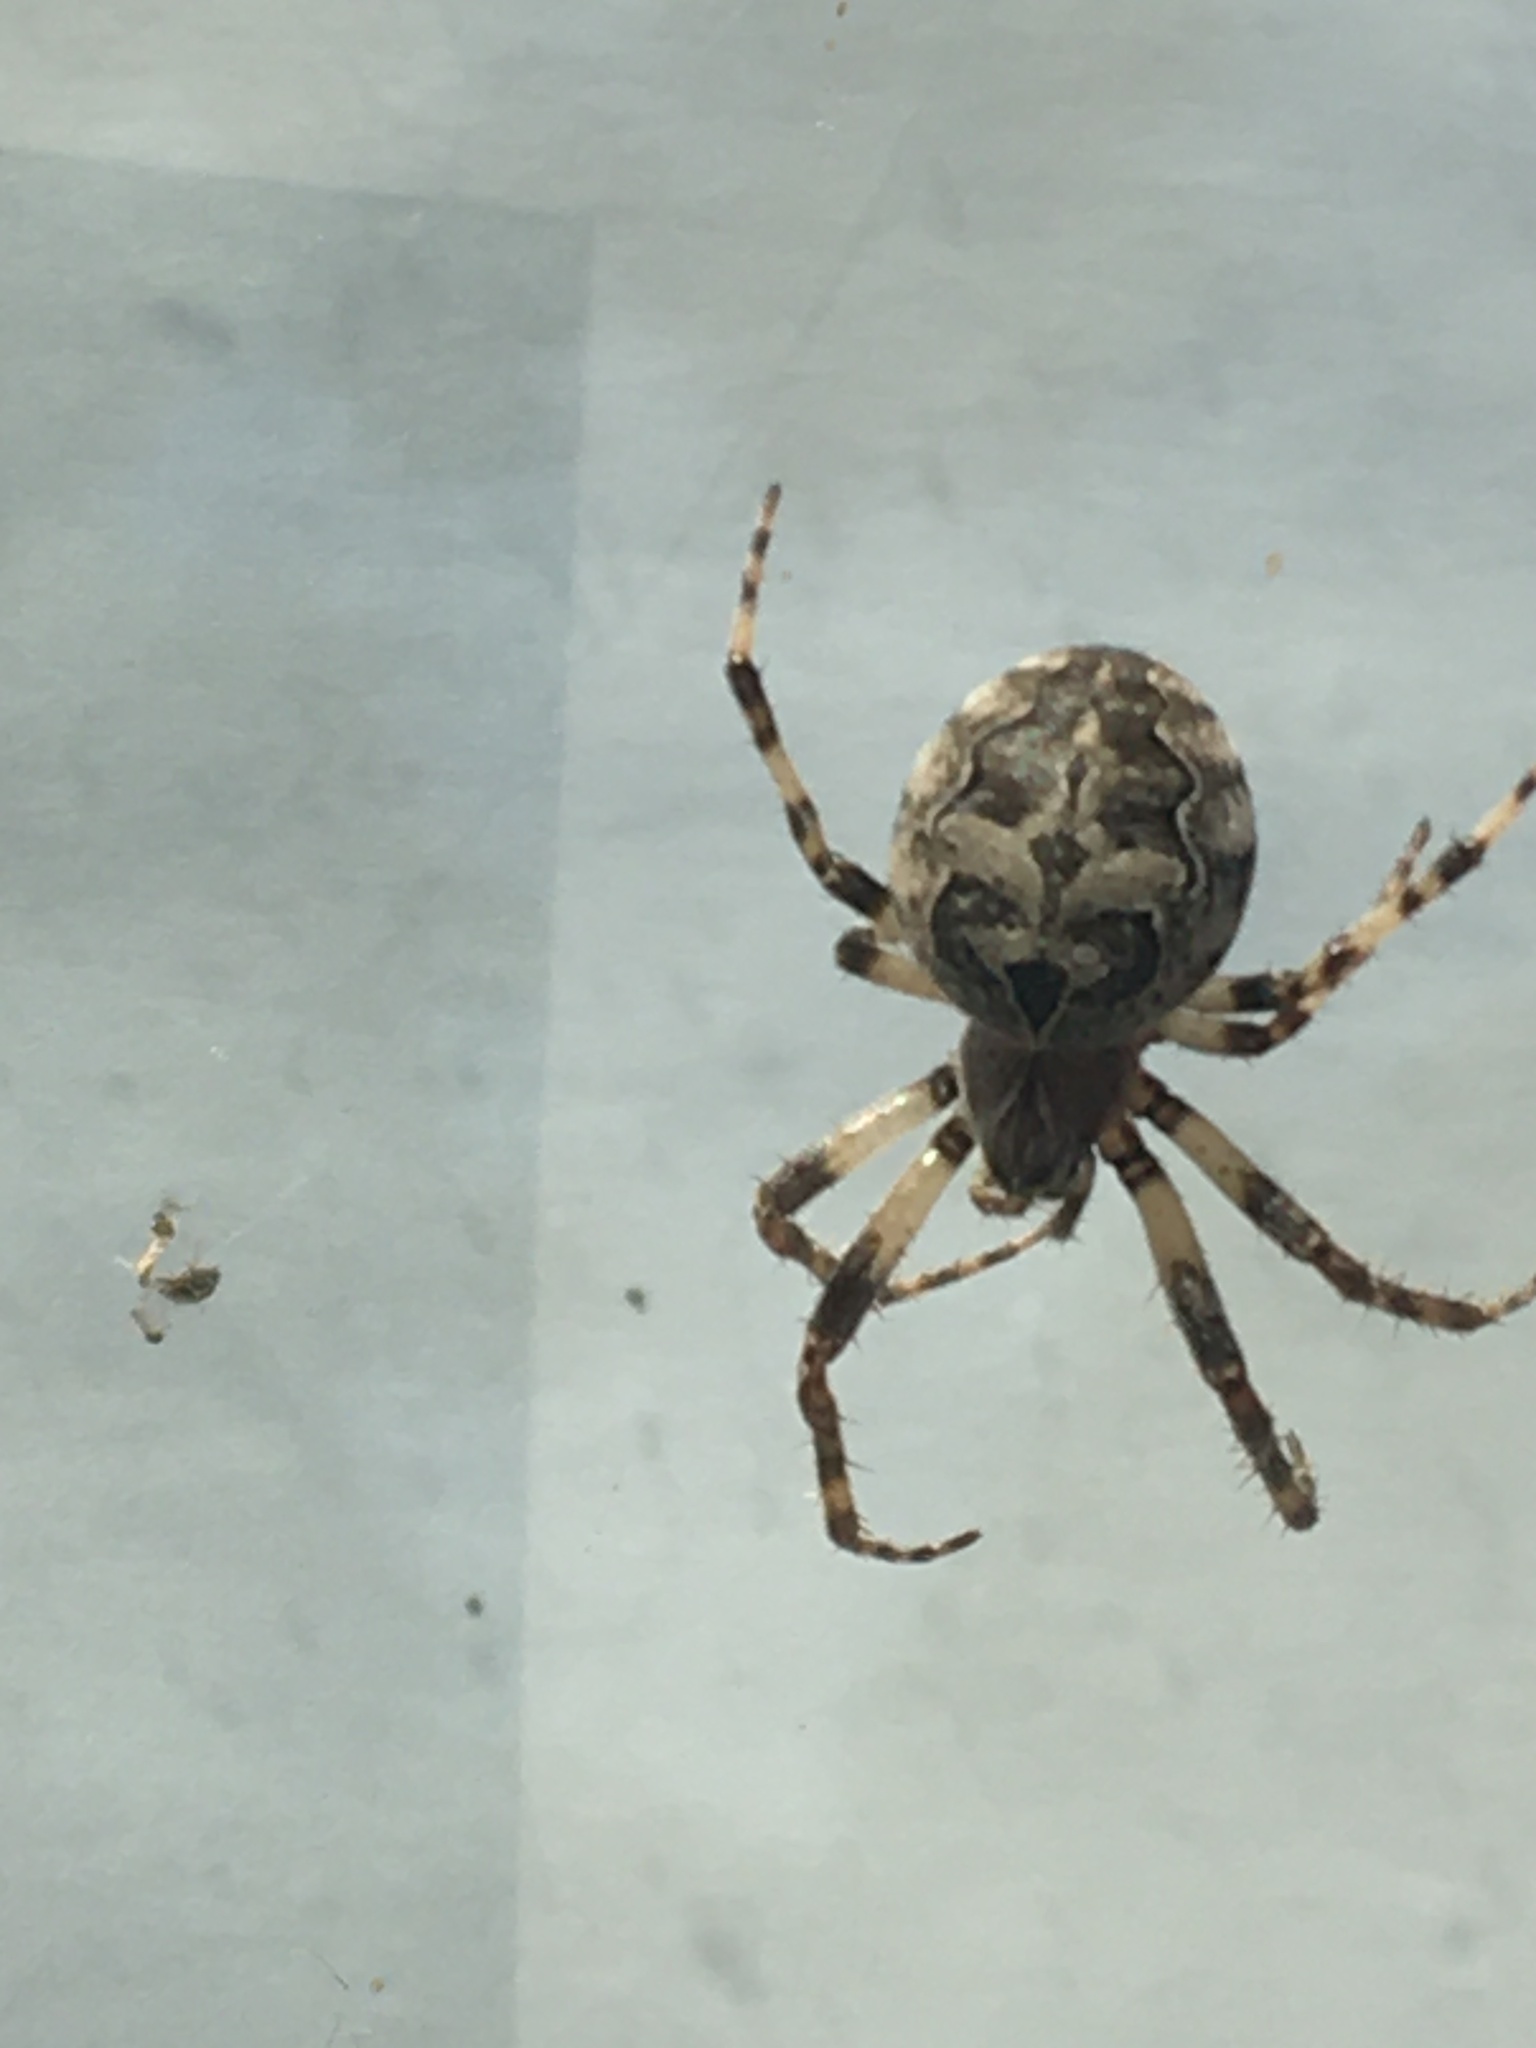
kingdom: Animalia
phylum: Arthropoda
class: Arachnida
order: Araneae
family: Araneidae
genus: Larinioides
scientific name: Larinioides sclopetarius
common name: Bridge orbweaver
